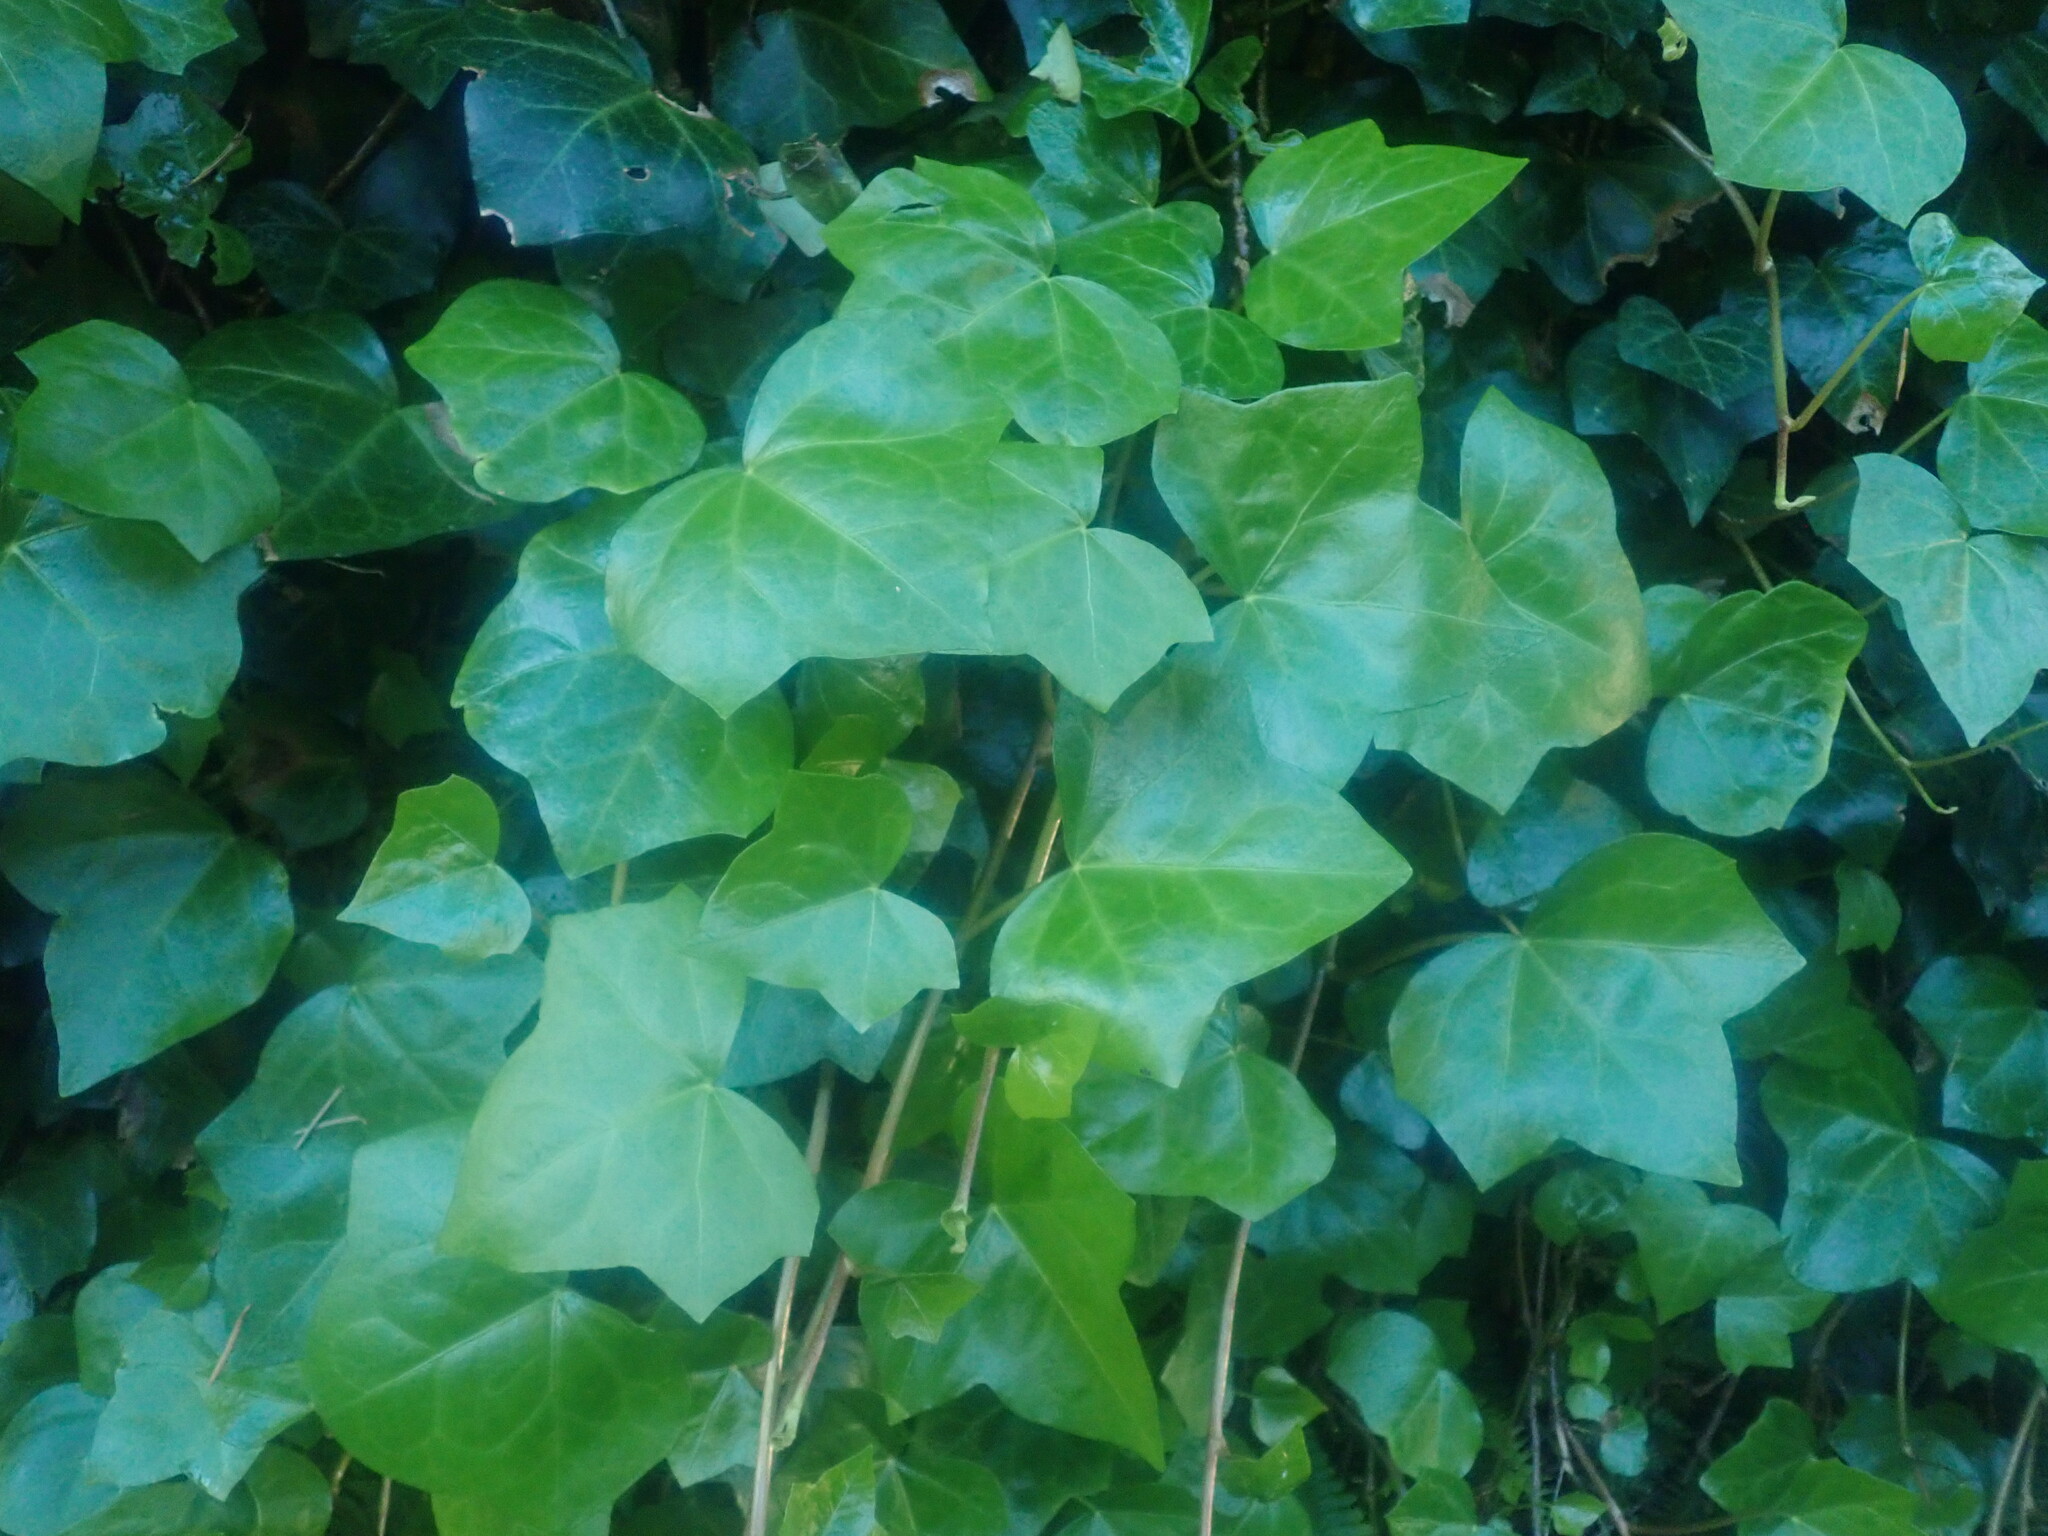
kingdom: Plantae
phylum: Tracheophyta
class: Magnoliopsida
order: Apiales
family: Araliaceae
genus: Hedera
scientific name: Hedera maderensis
